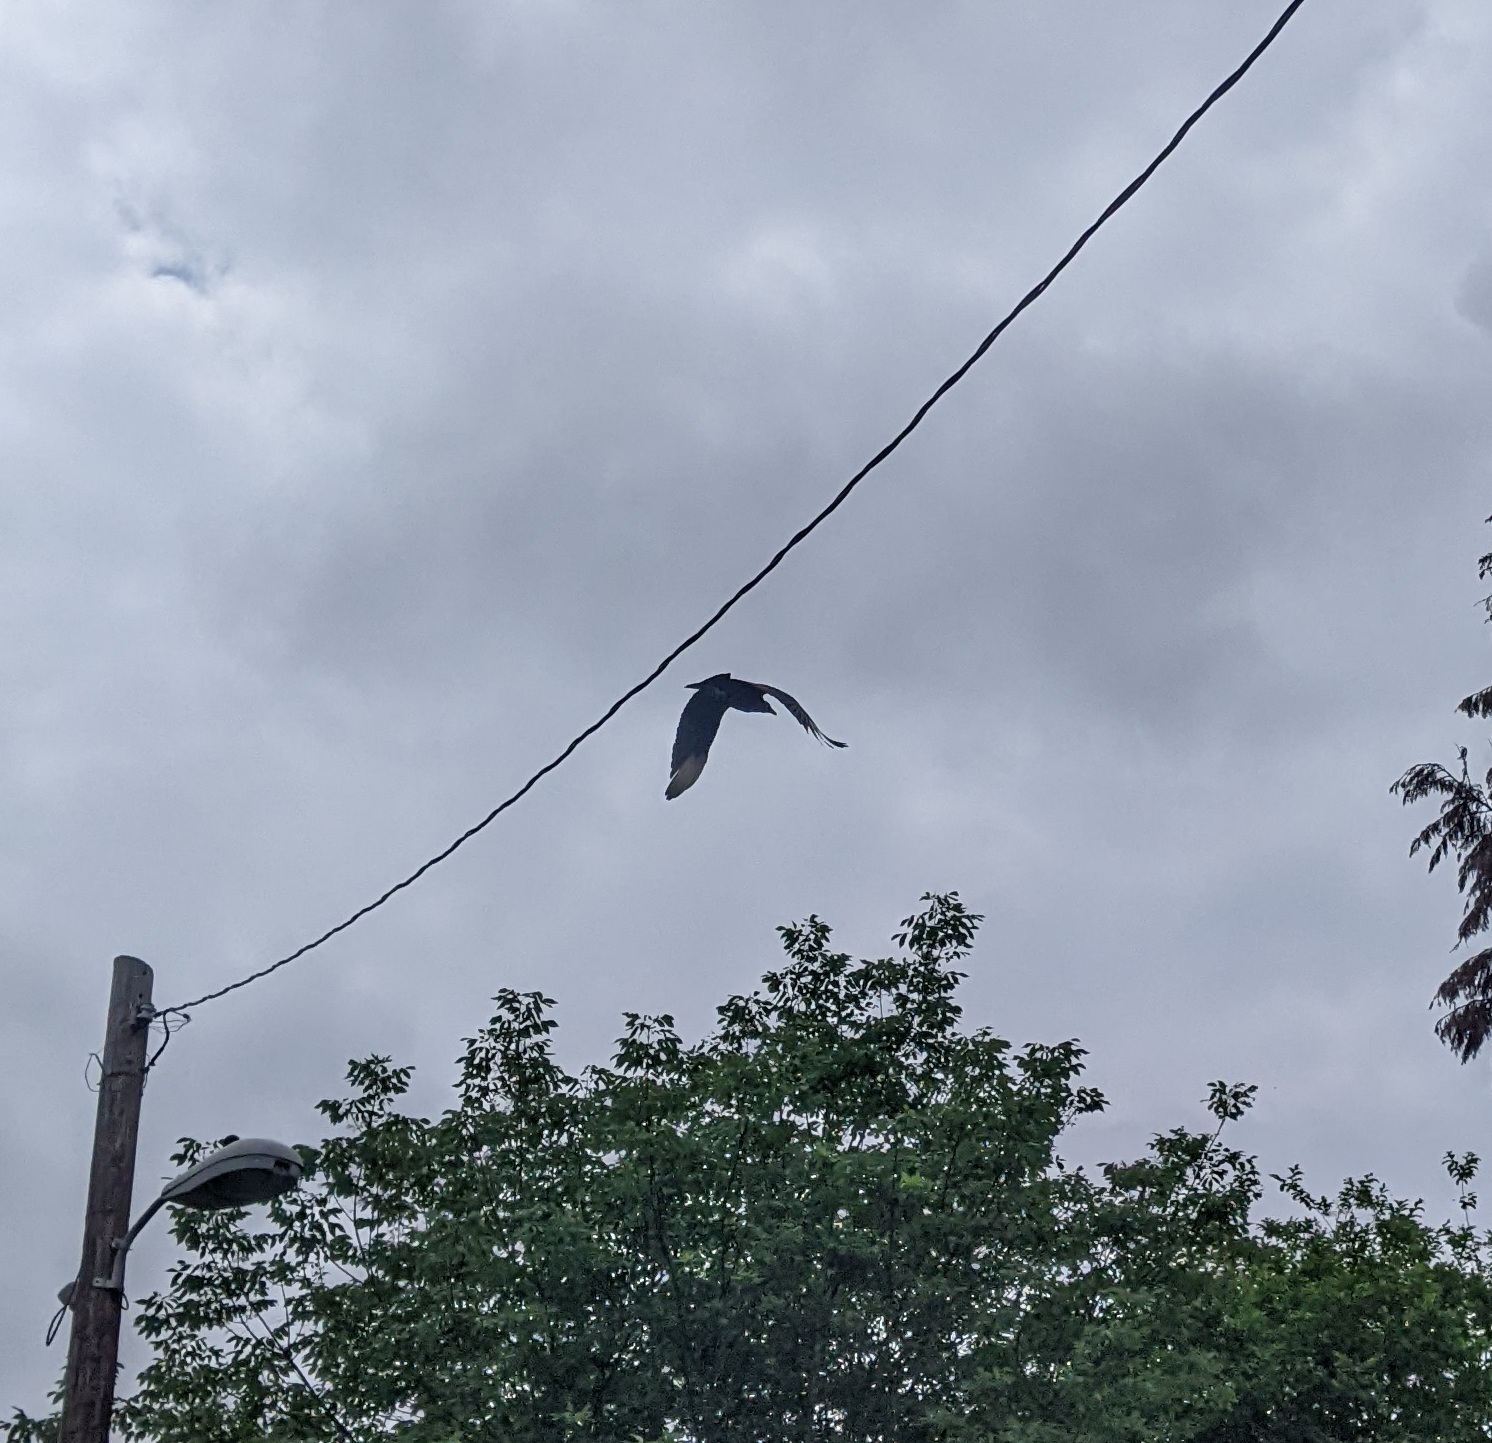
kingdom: Animalia
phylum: Chordata
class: Aves
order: Accipitriformes
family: Cathartidae
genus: Coragyps
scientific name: Coragyps atratus
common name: Black vulture
